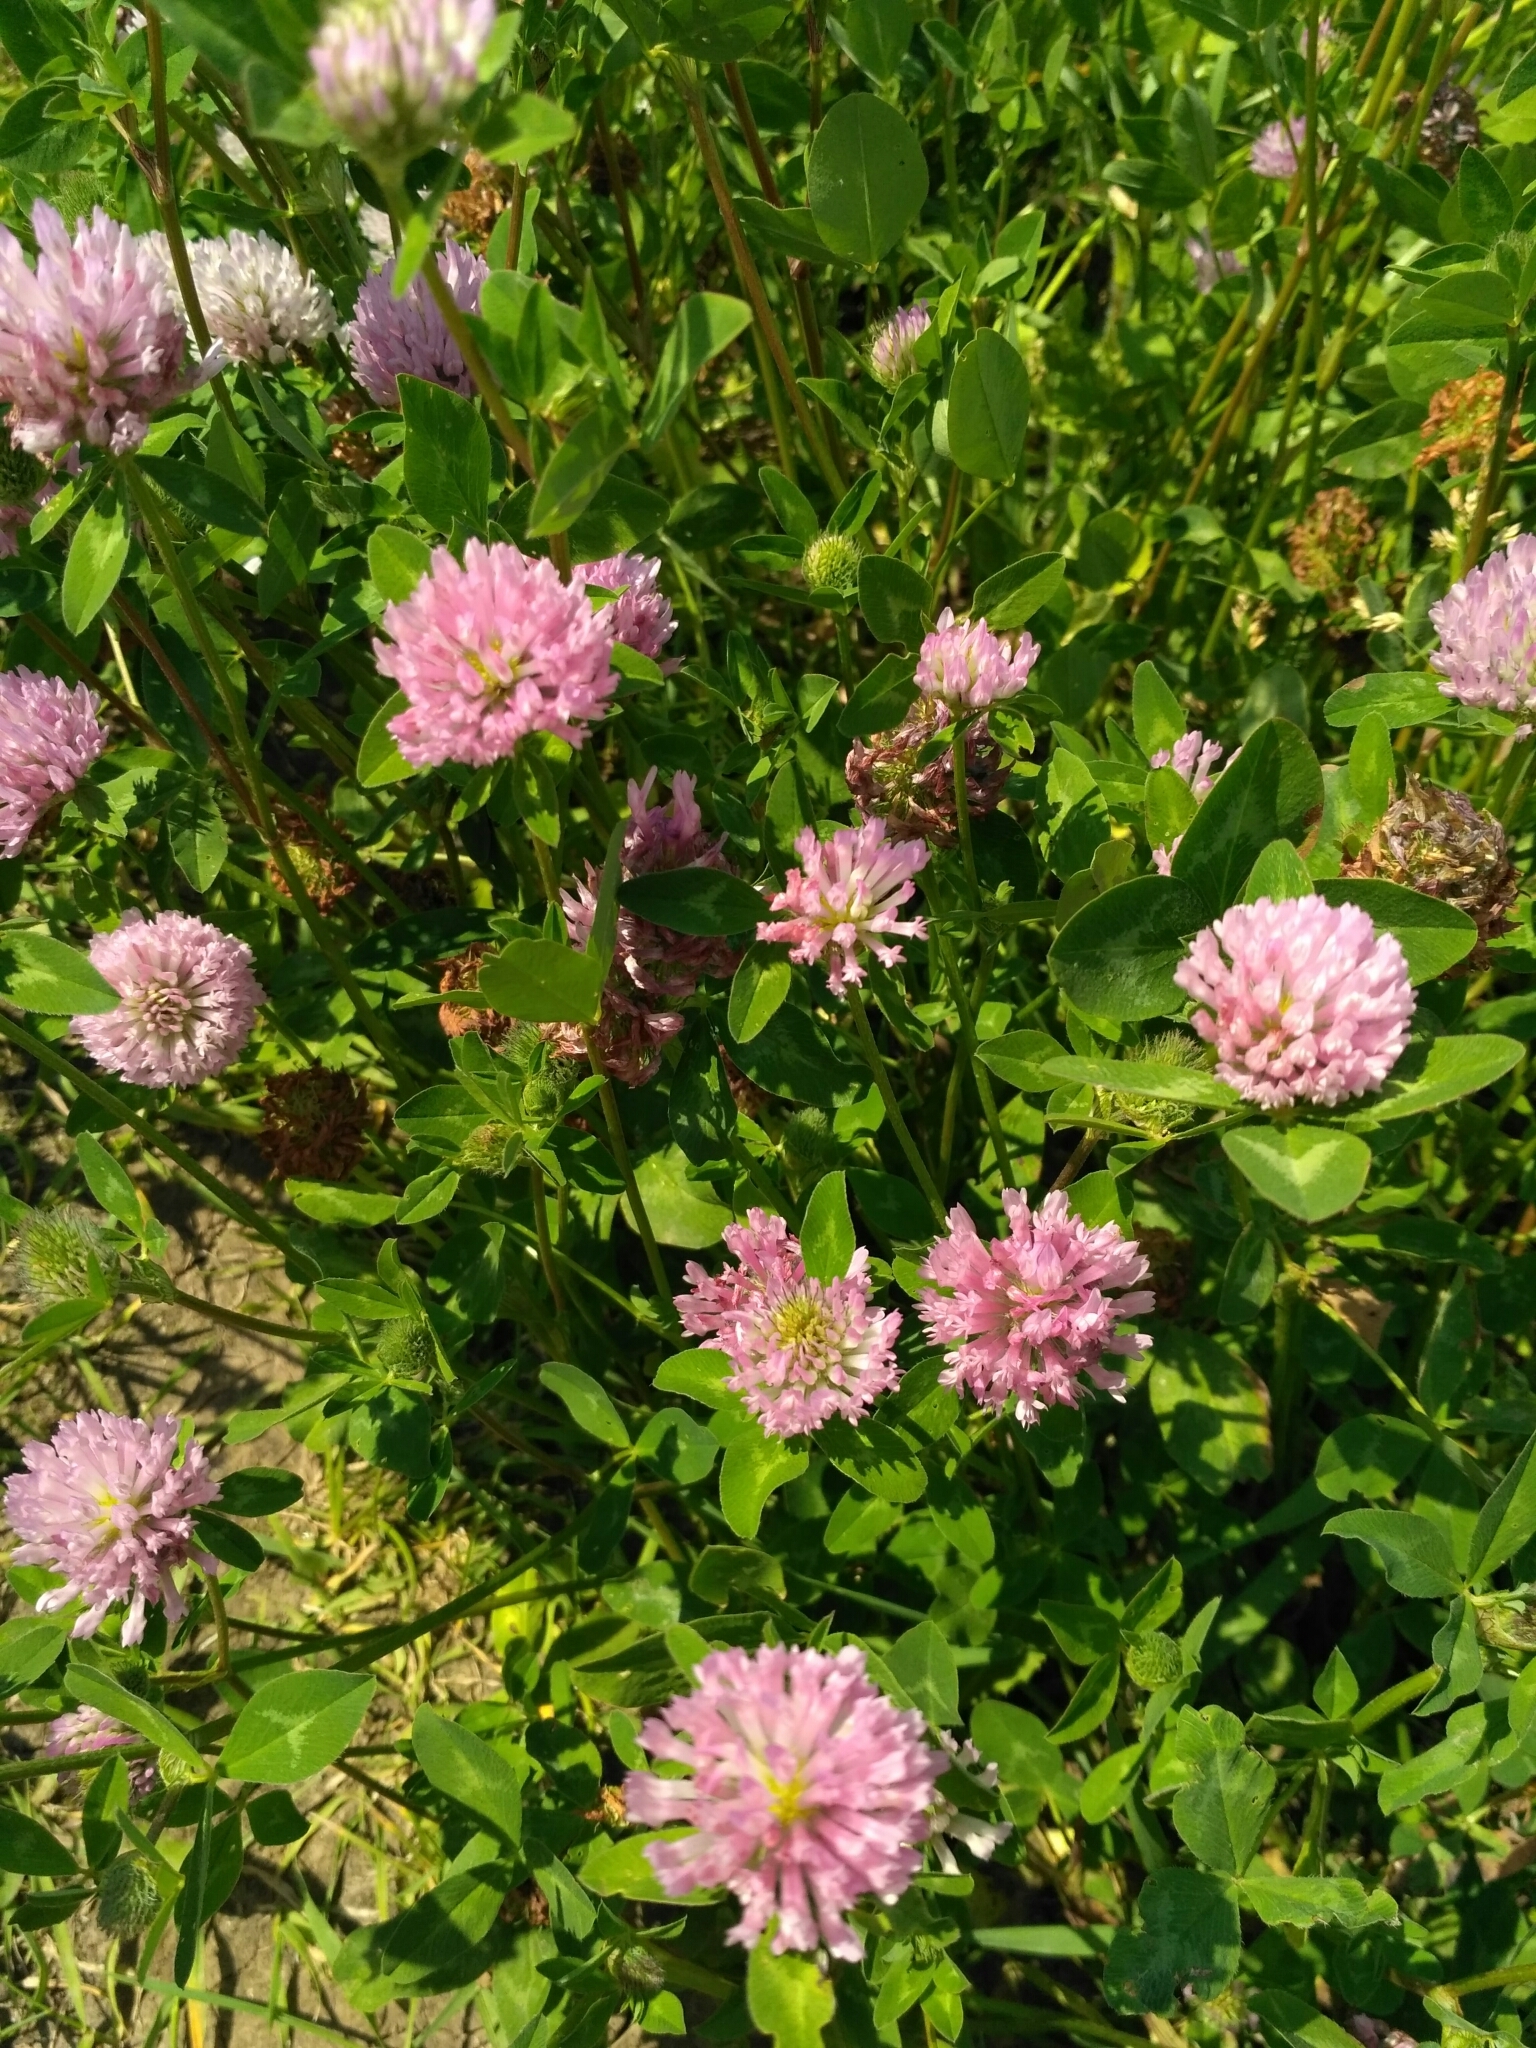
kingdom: Plantae
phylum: Tracheophyta
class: Magnoliopsida
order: Fabales
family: Fabaceae
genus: Trifolium
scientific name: Trifolium pratense
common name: Red clover
